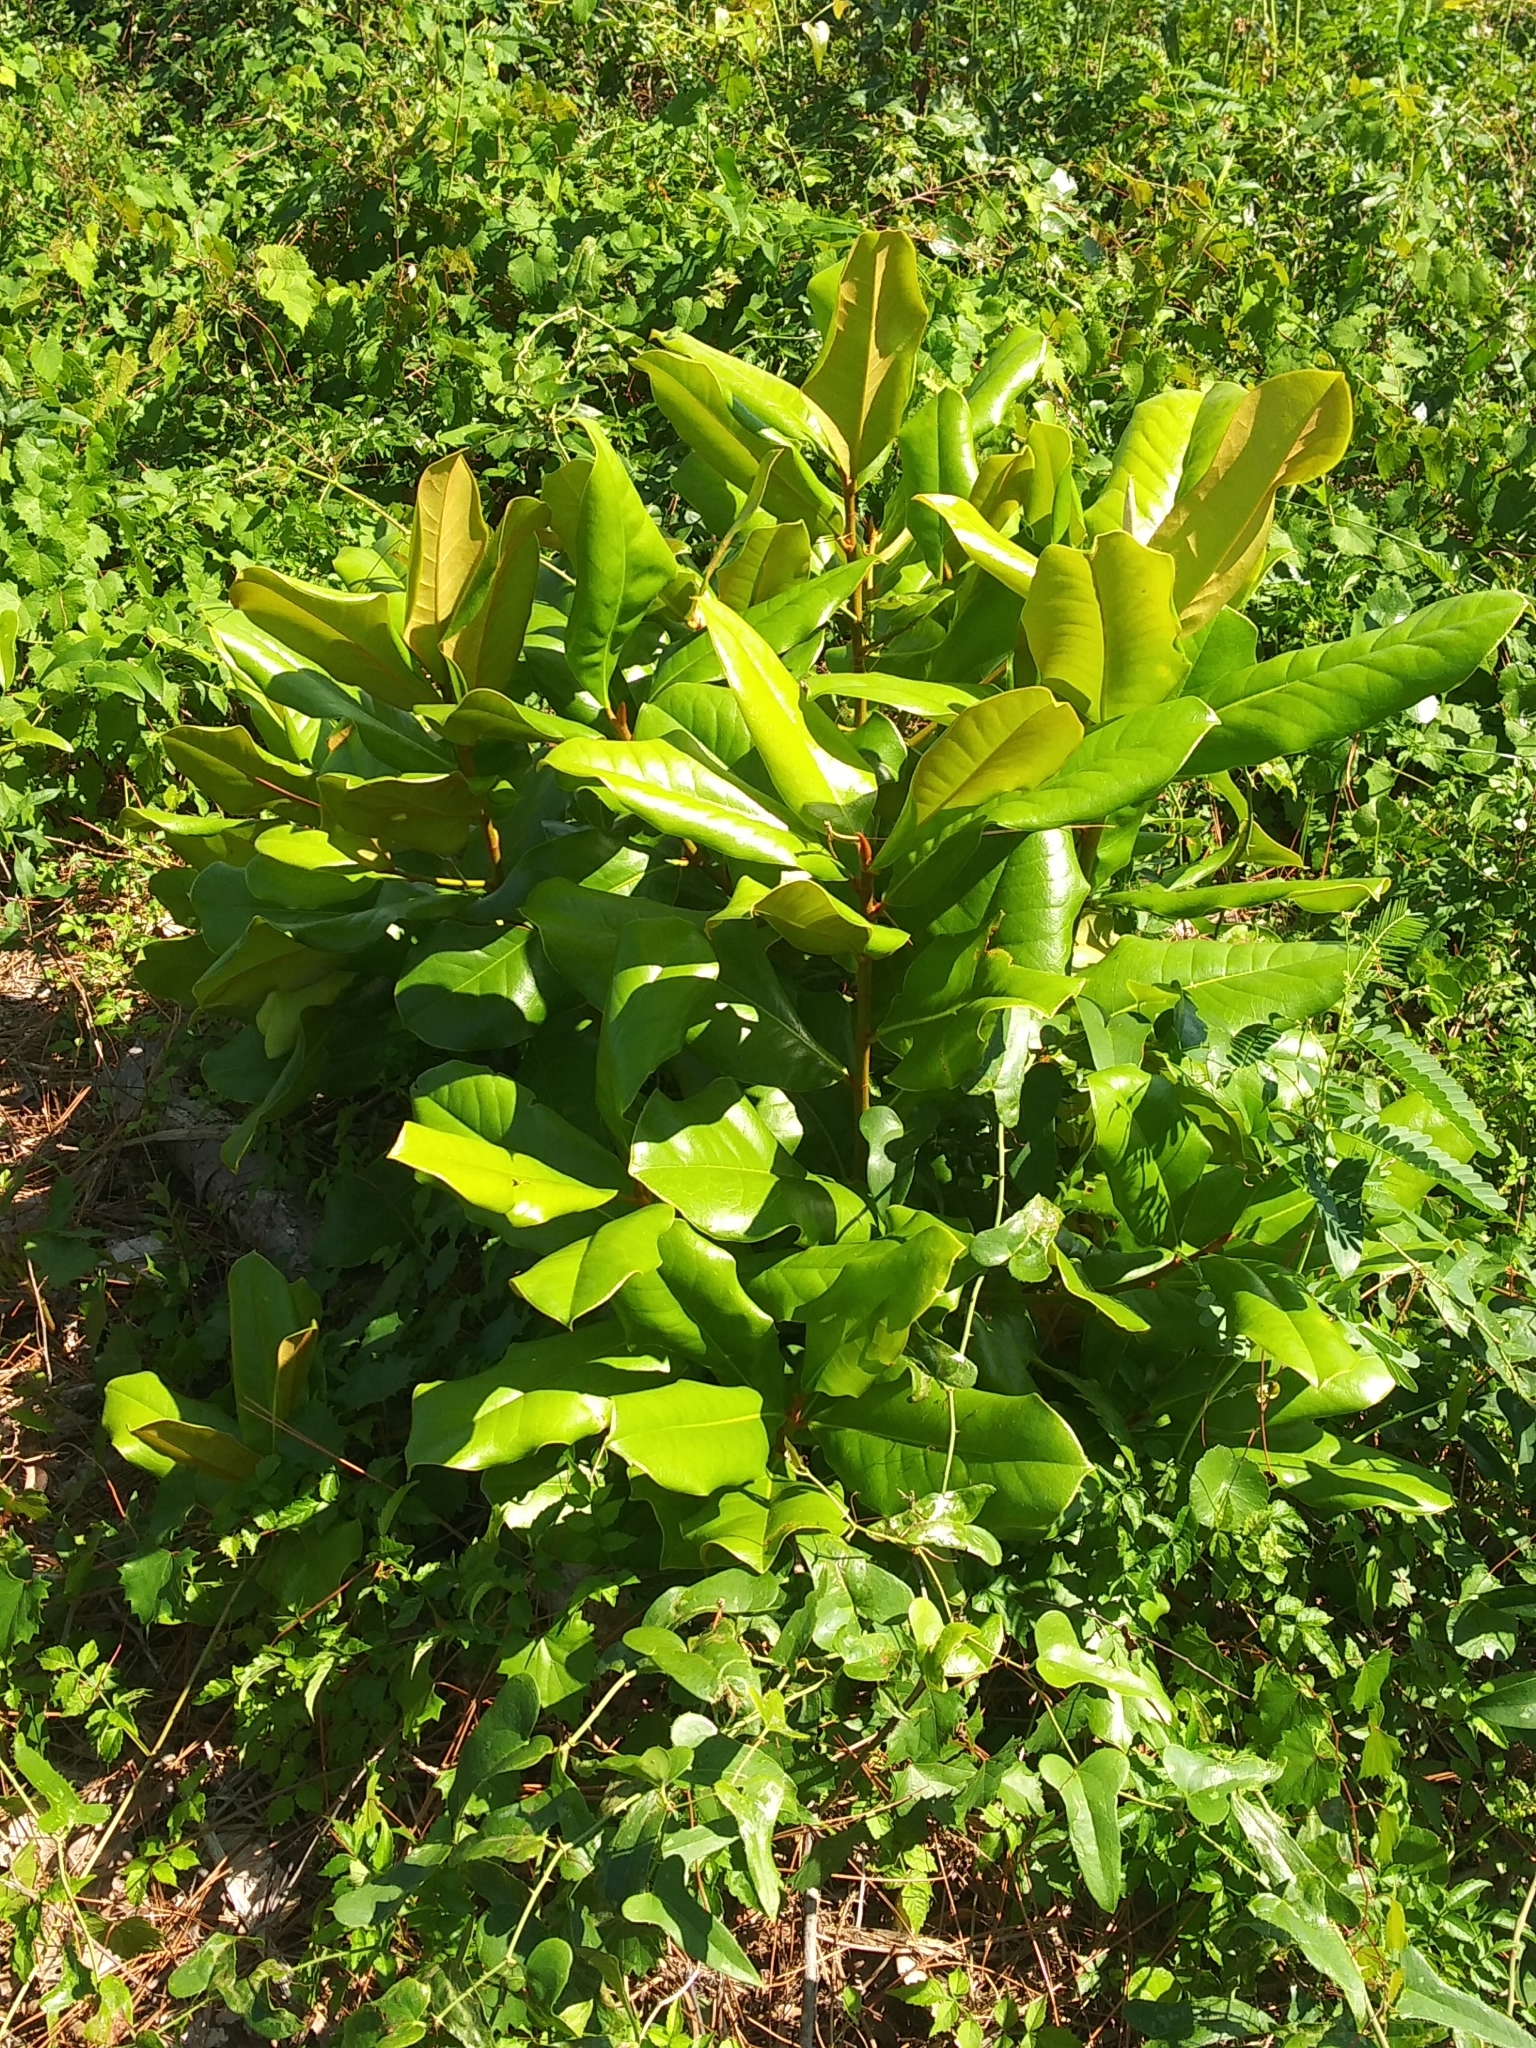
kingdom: Plantae
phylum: Tracheophyta
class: Magnoliopsida
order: Magnoliales
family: Magnoliaceae
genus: Magnolia
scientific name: Magnolia grandiflora
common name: Southern magnolia
